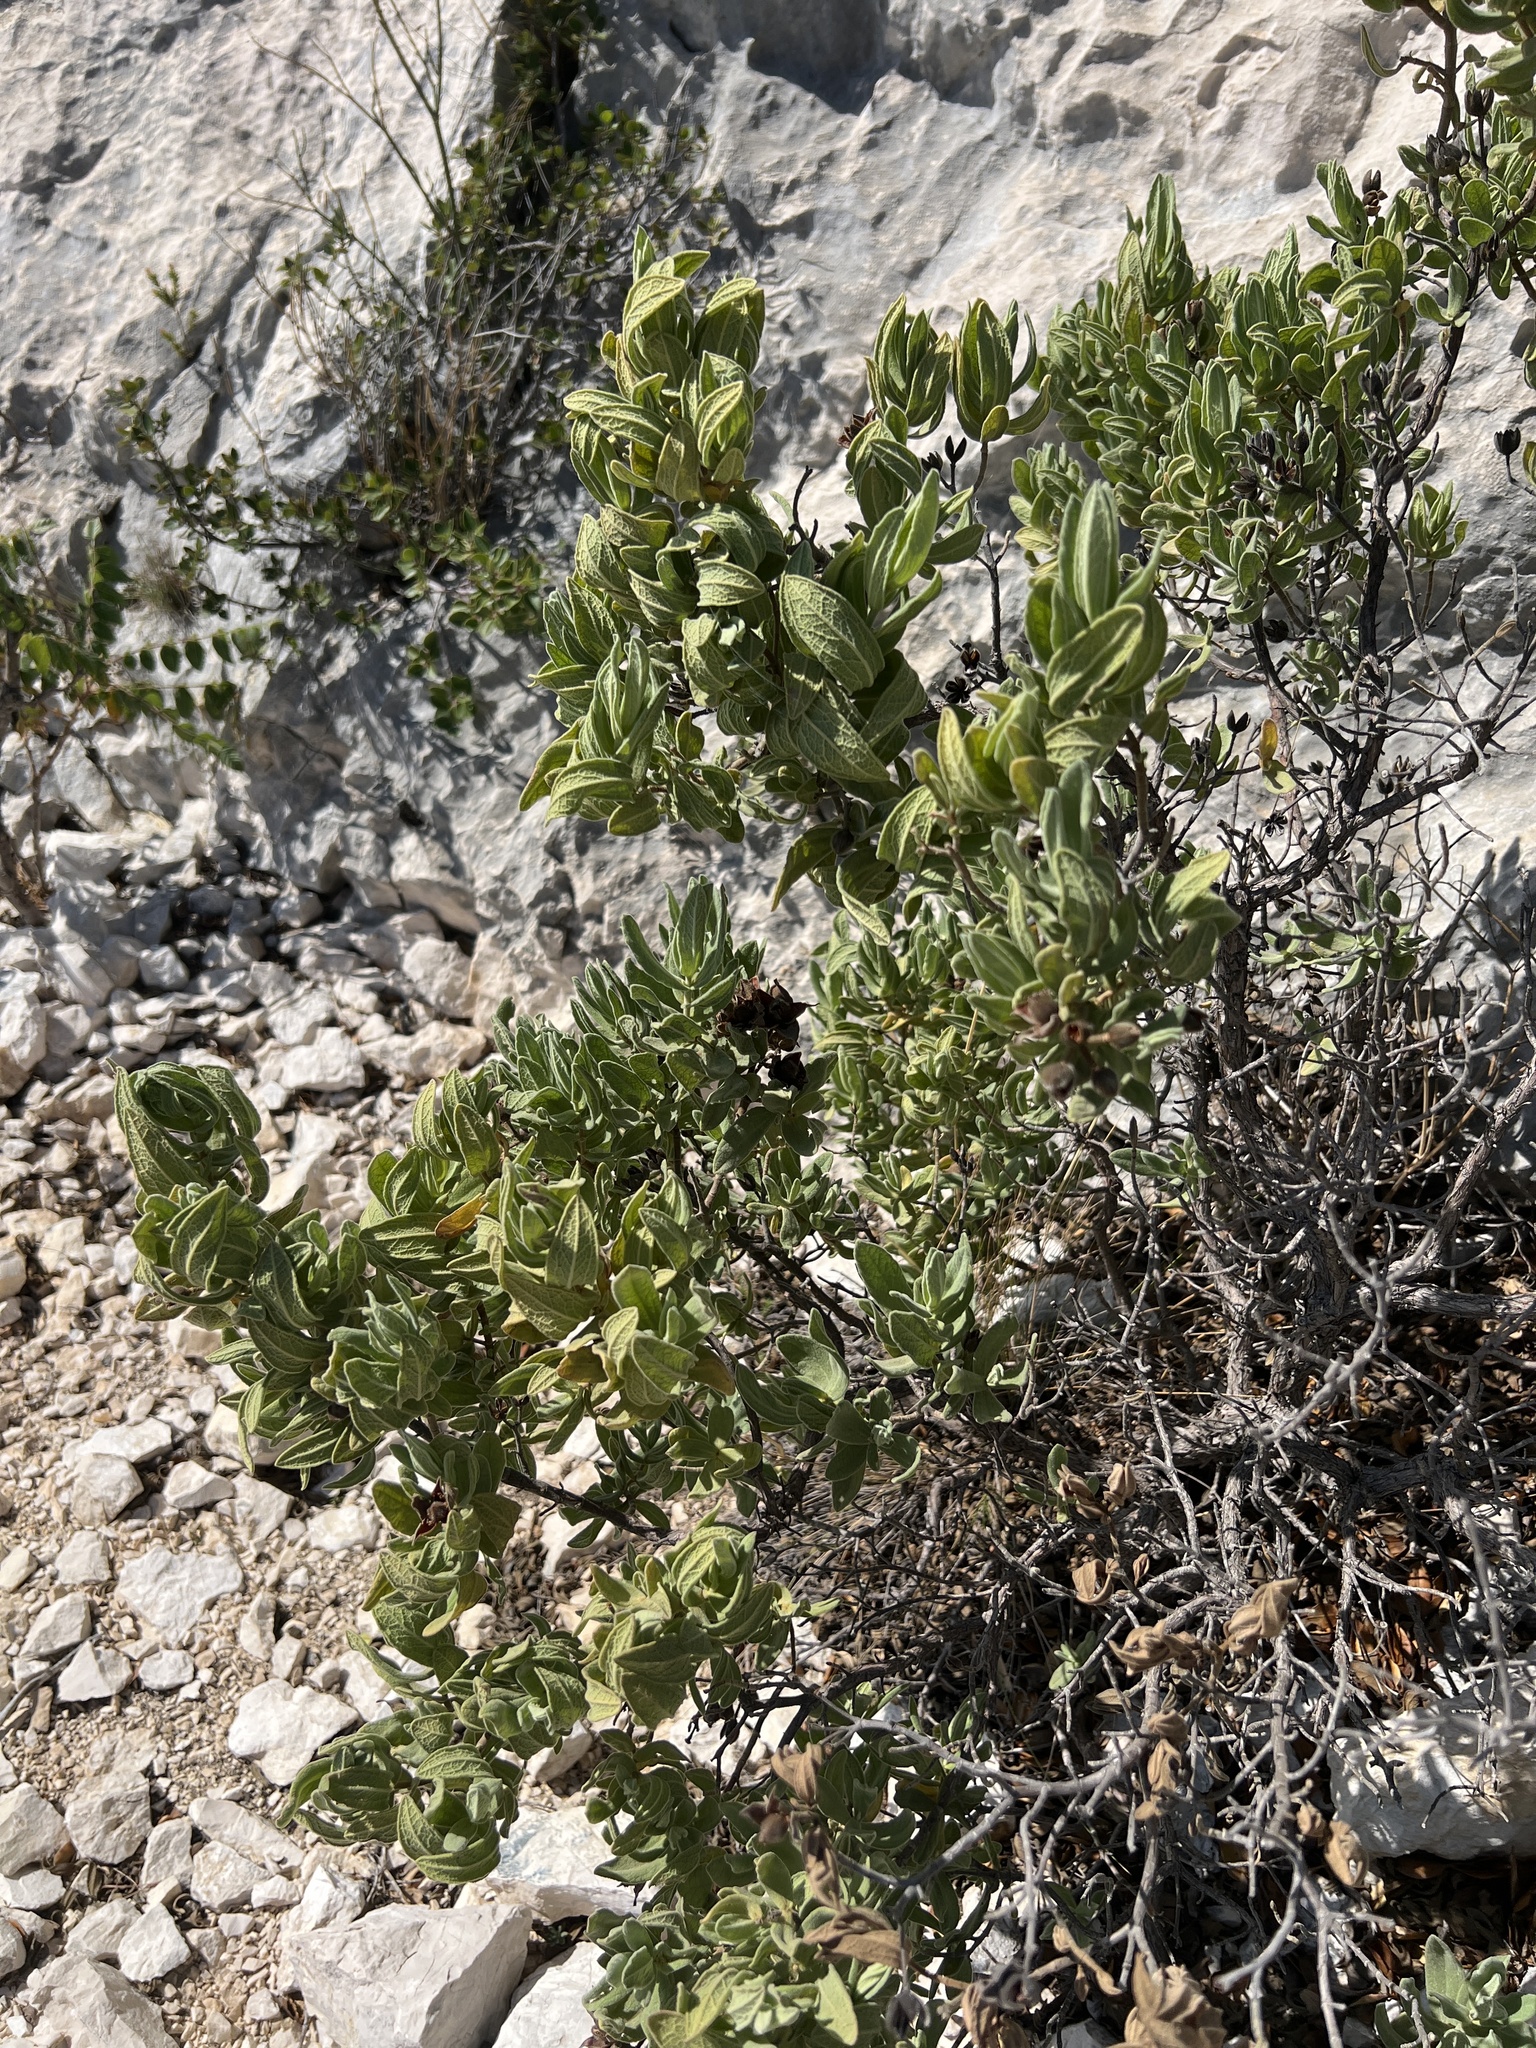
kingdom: Plantae
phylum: Tracheophyta
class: Magnoliopsida
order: Malvales
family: Cistaceae
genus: Cistus
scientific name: Cistus albidus
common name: White-leaf rock-rose
